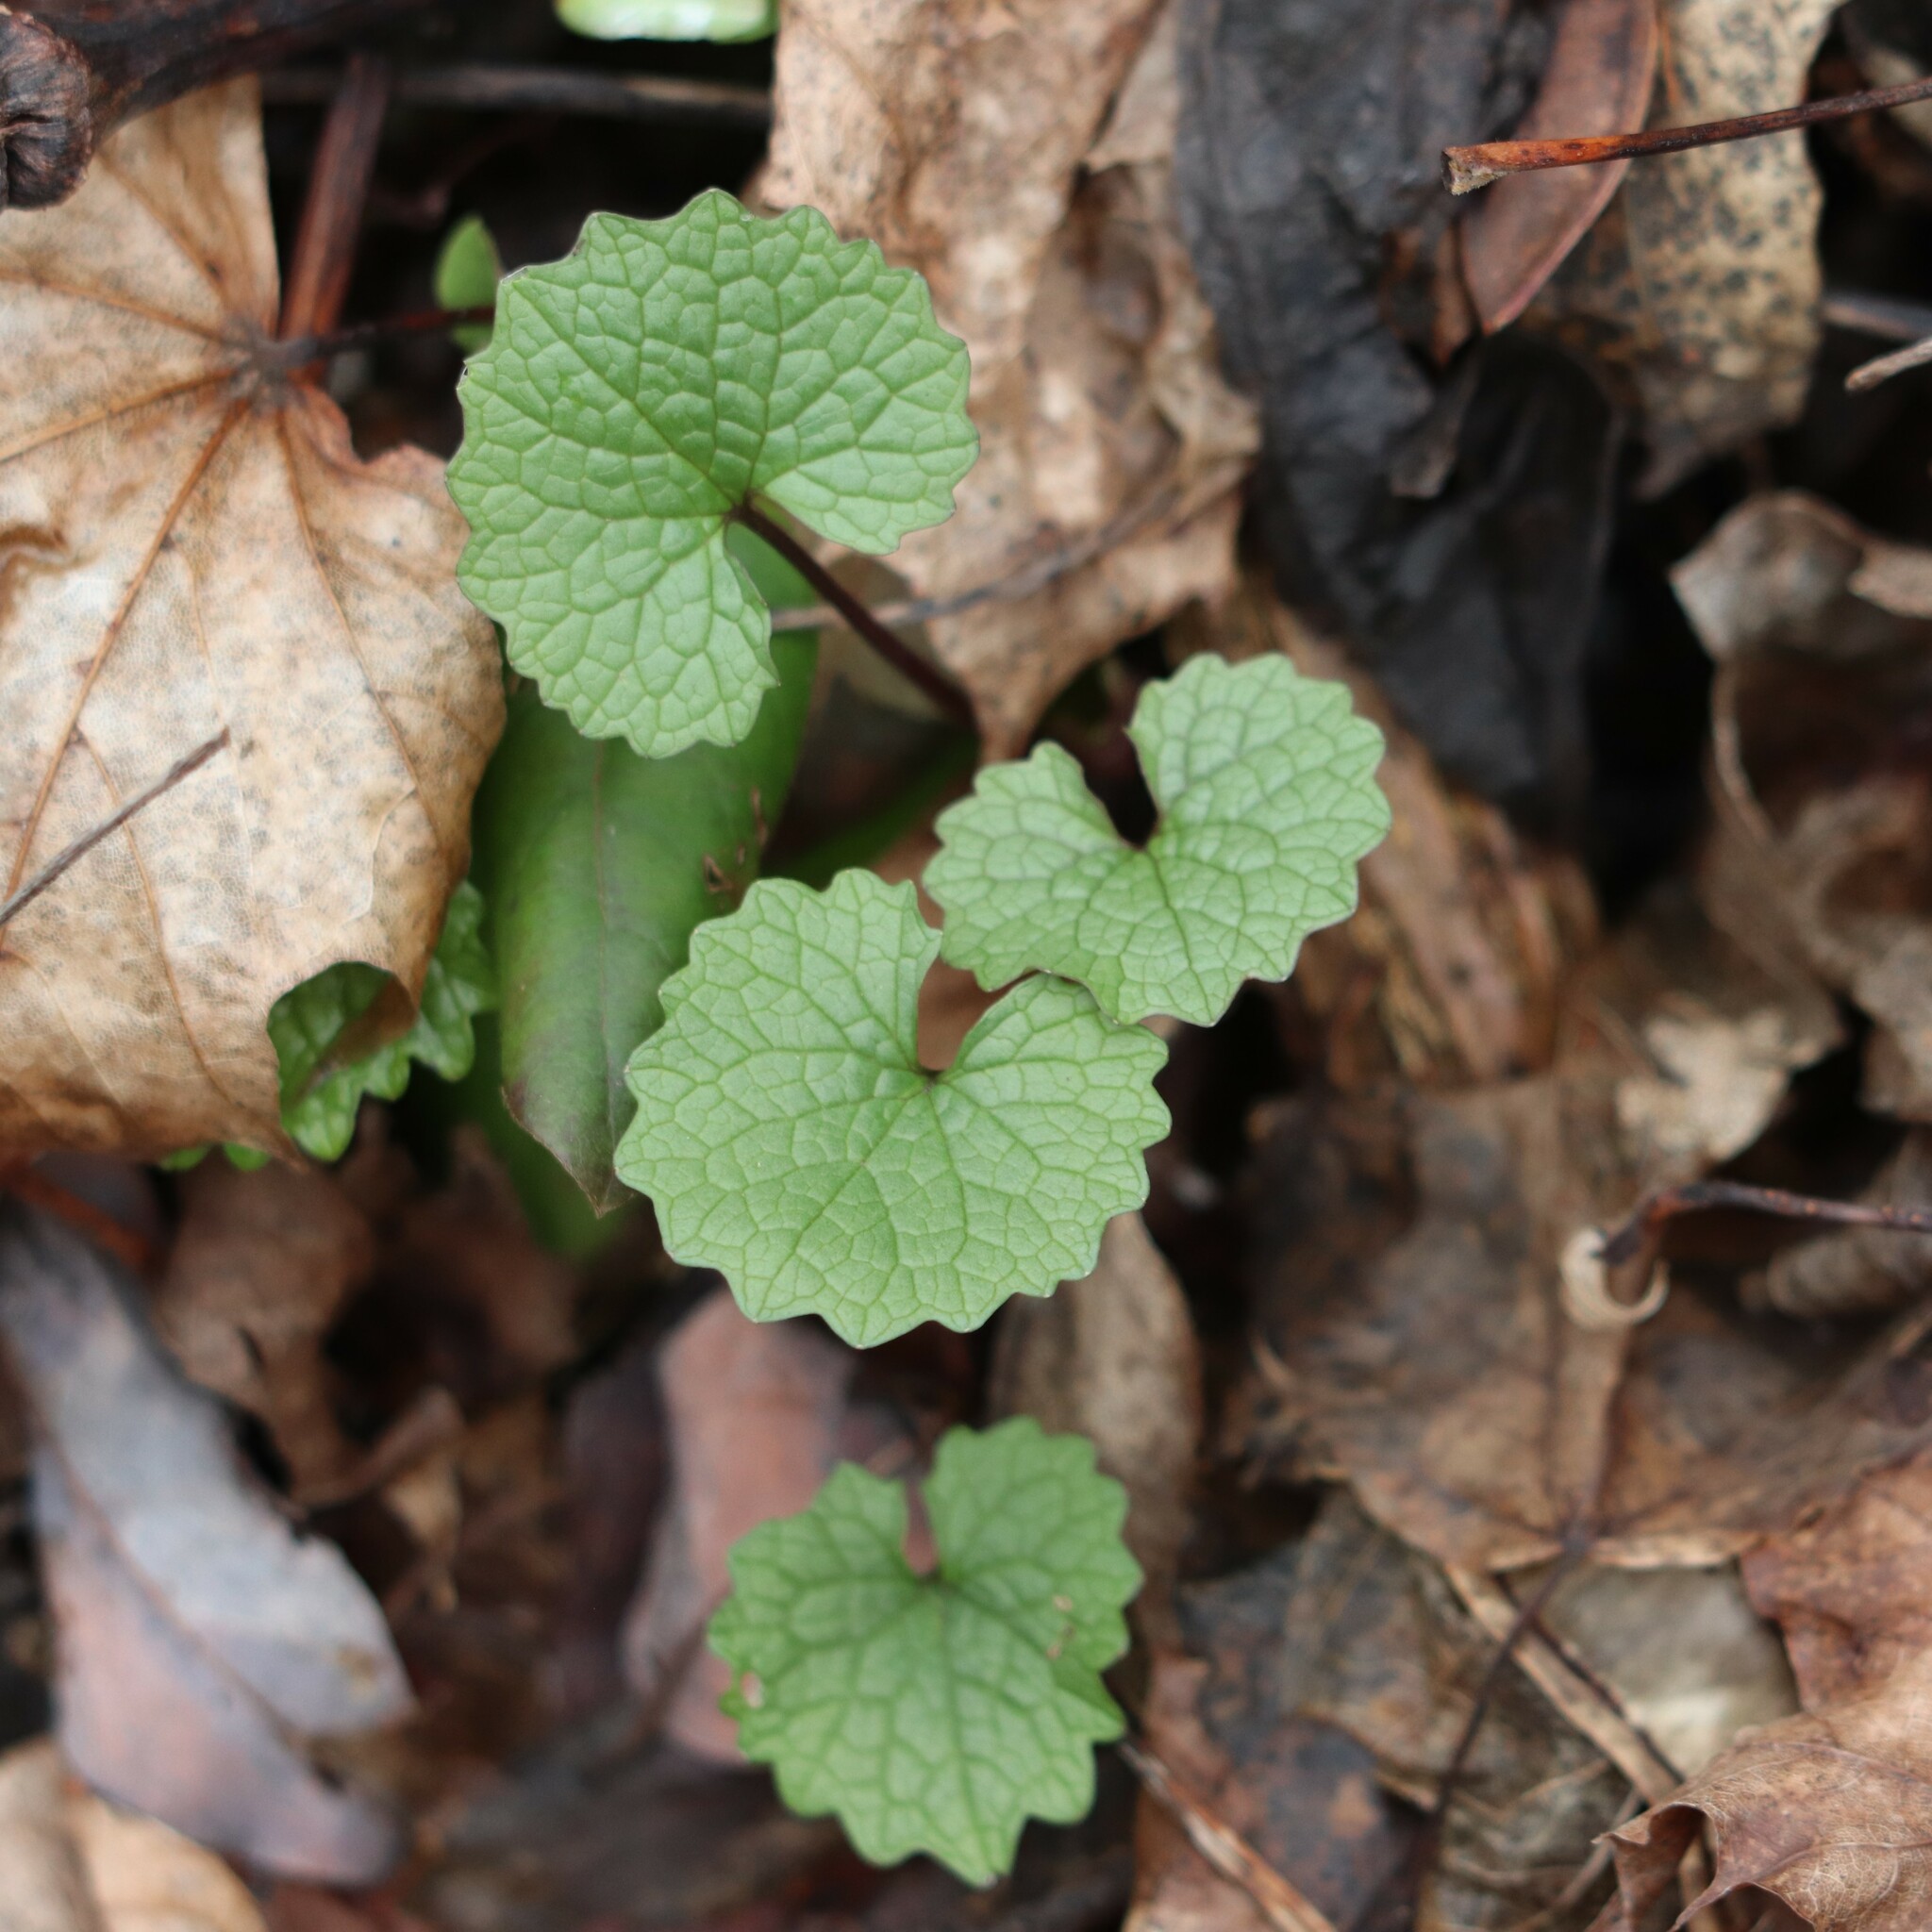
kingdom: Plantae
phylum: Tracheophyta
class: Magnoliopsida
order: Brassicales
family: Brassicaceae
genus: Alliaria
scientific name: Alliaria petiolata
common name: Garlic mustard
